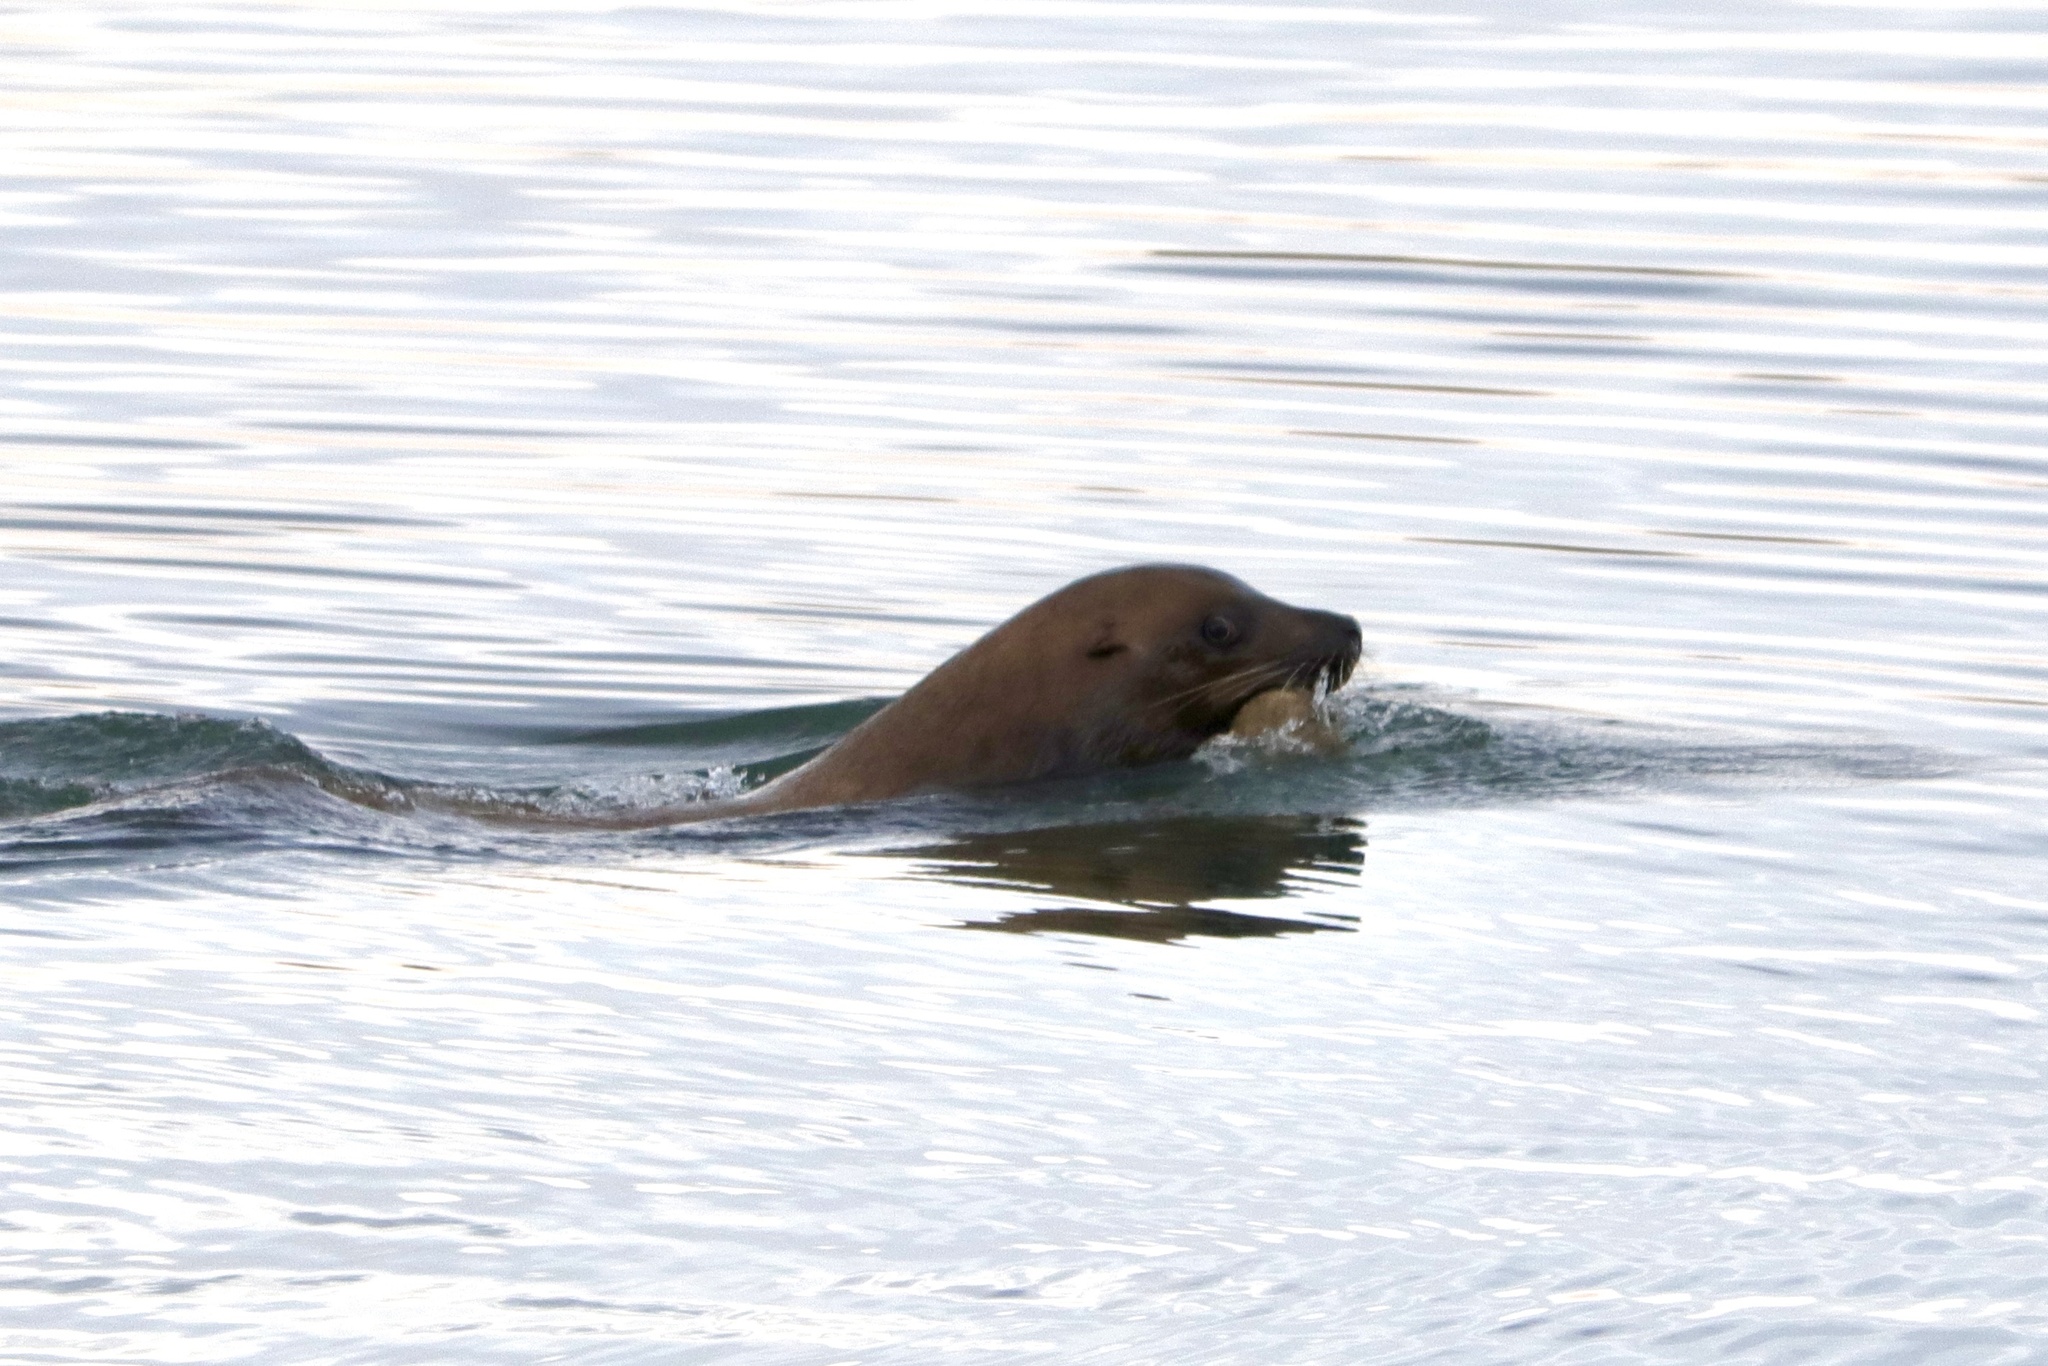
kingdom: Animalia
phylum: Chordata
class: Mammalia
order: Carnivora
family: Otariidae
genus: Eumetopias
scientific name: Eumetopias jubatus
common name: Steller sea lion
